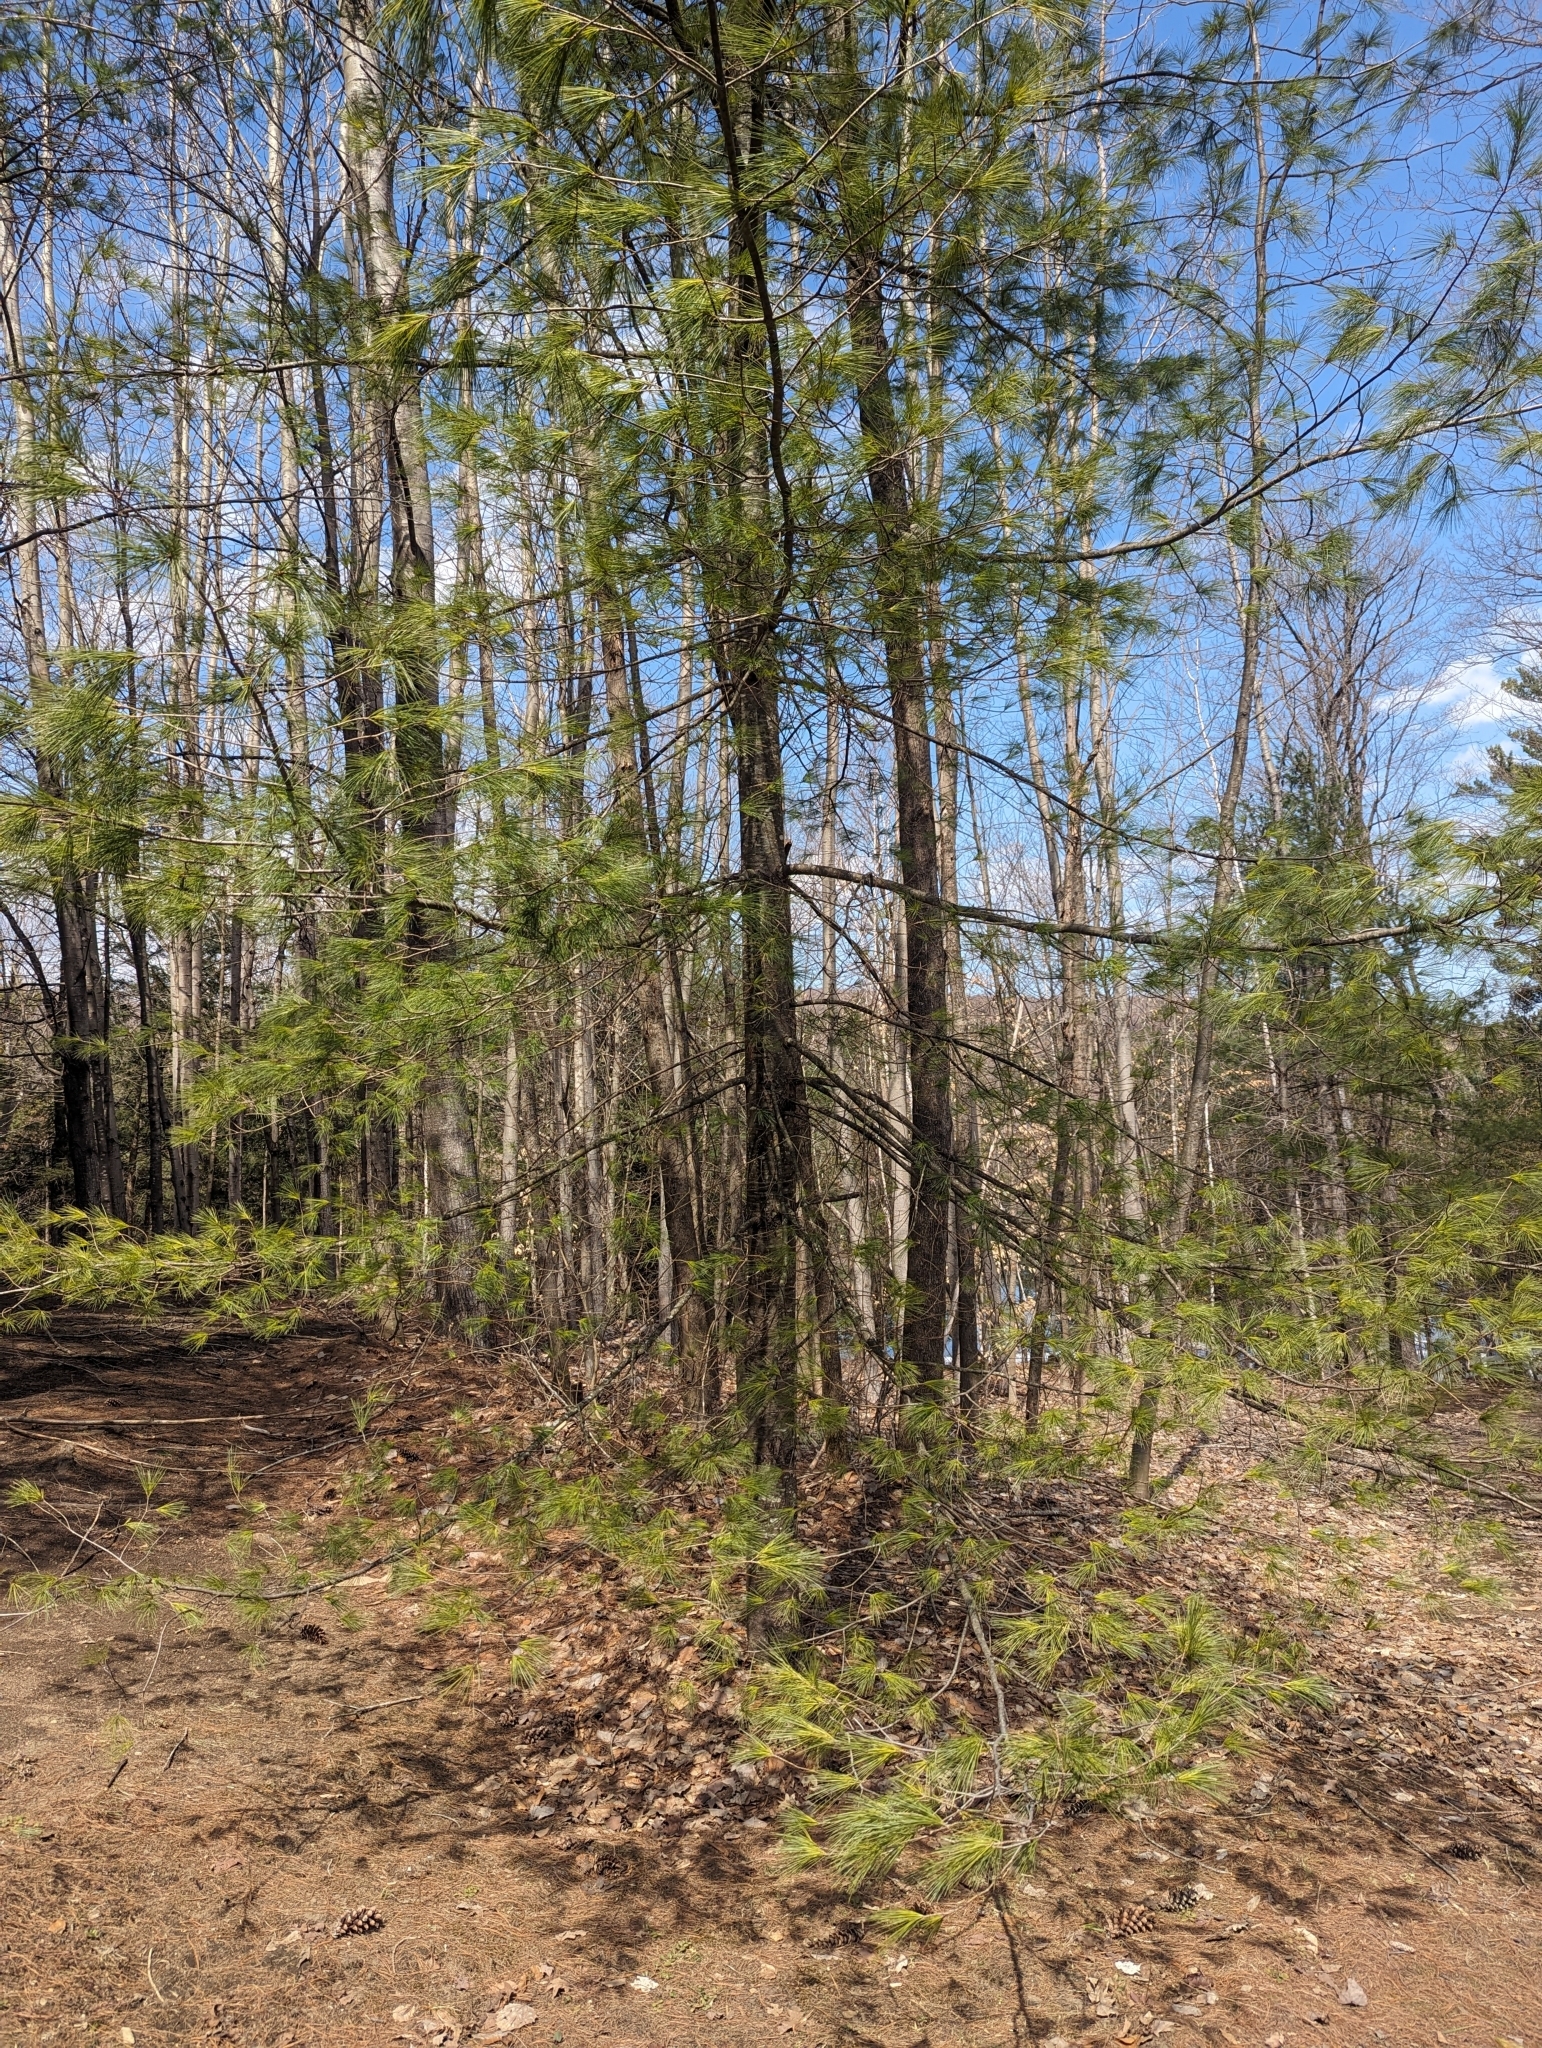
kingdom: Plantae
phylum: Tracheophyta
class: Pinopsida
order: Pinales
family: Pinaceae
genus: Pinus
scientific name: Pinus strobus
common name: Weymouth pine
